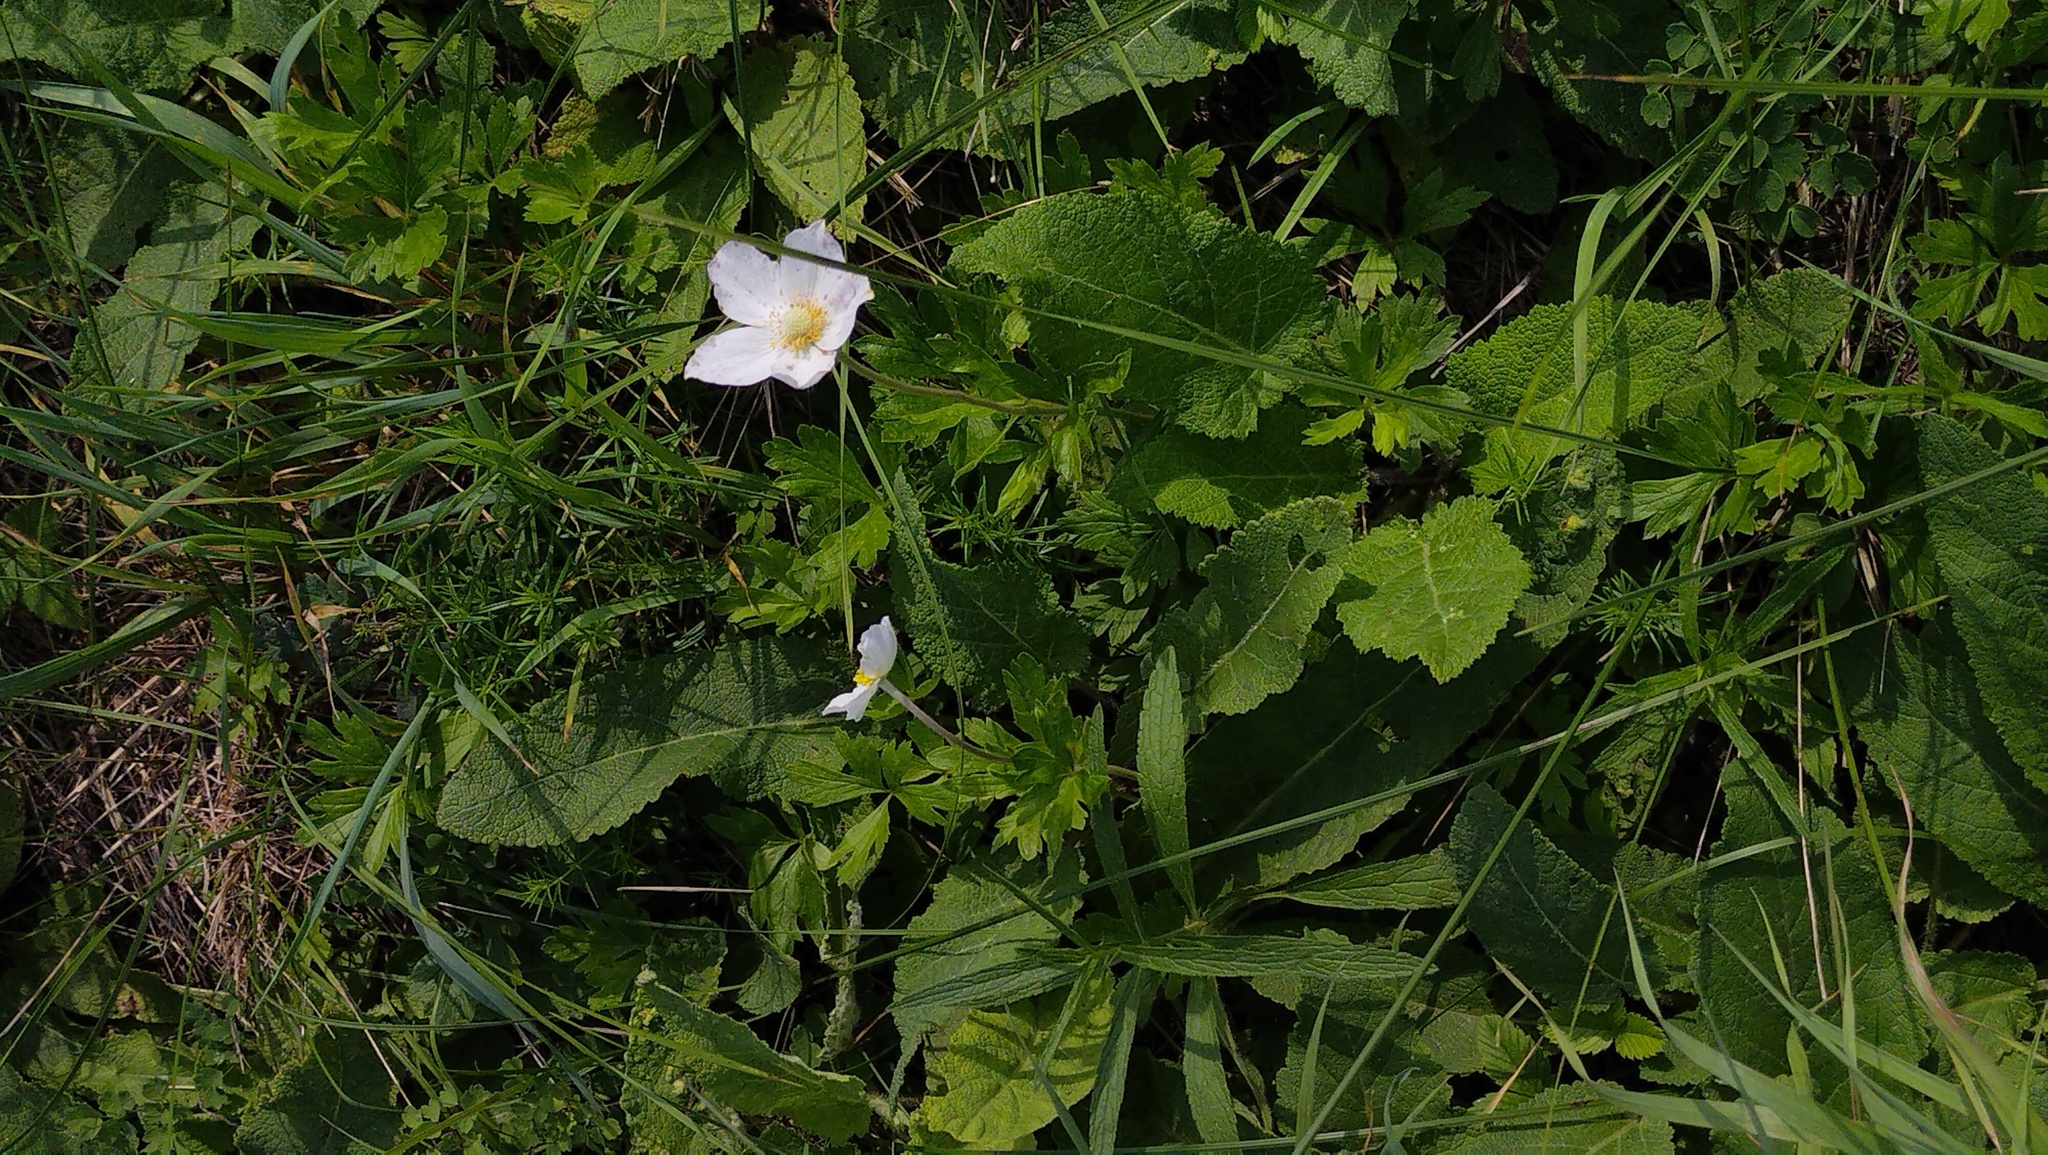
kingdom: Plantae
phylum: Tracheophyta
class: Magnoliopsida
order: Ranunculales
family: Ranunculaceae
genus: Anemone
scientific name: Anemone sylvestris
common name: Snowdrop anemone
